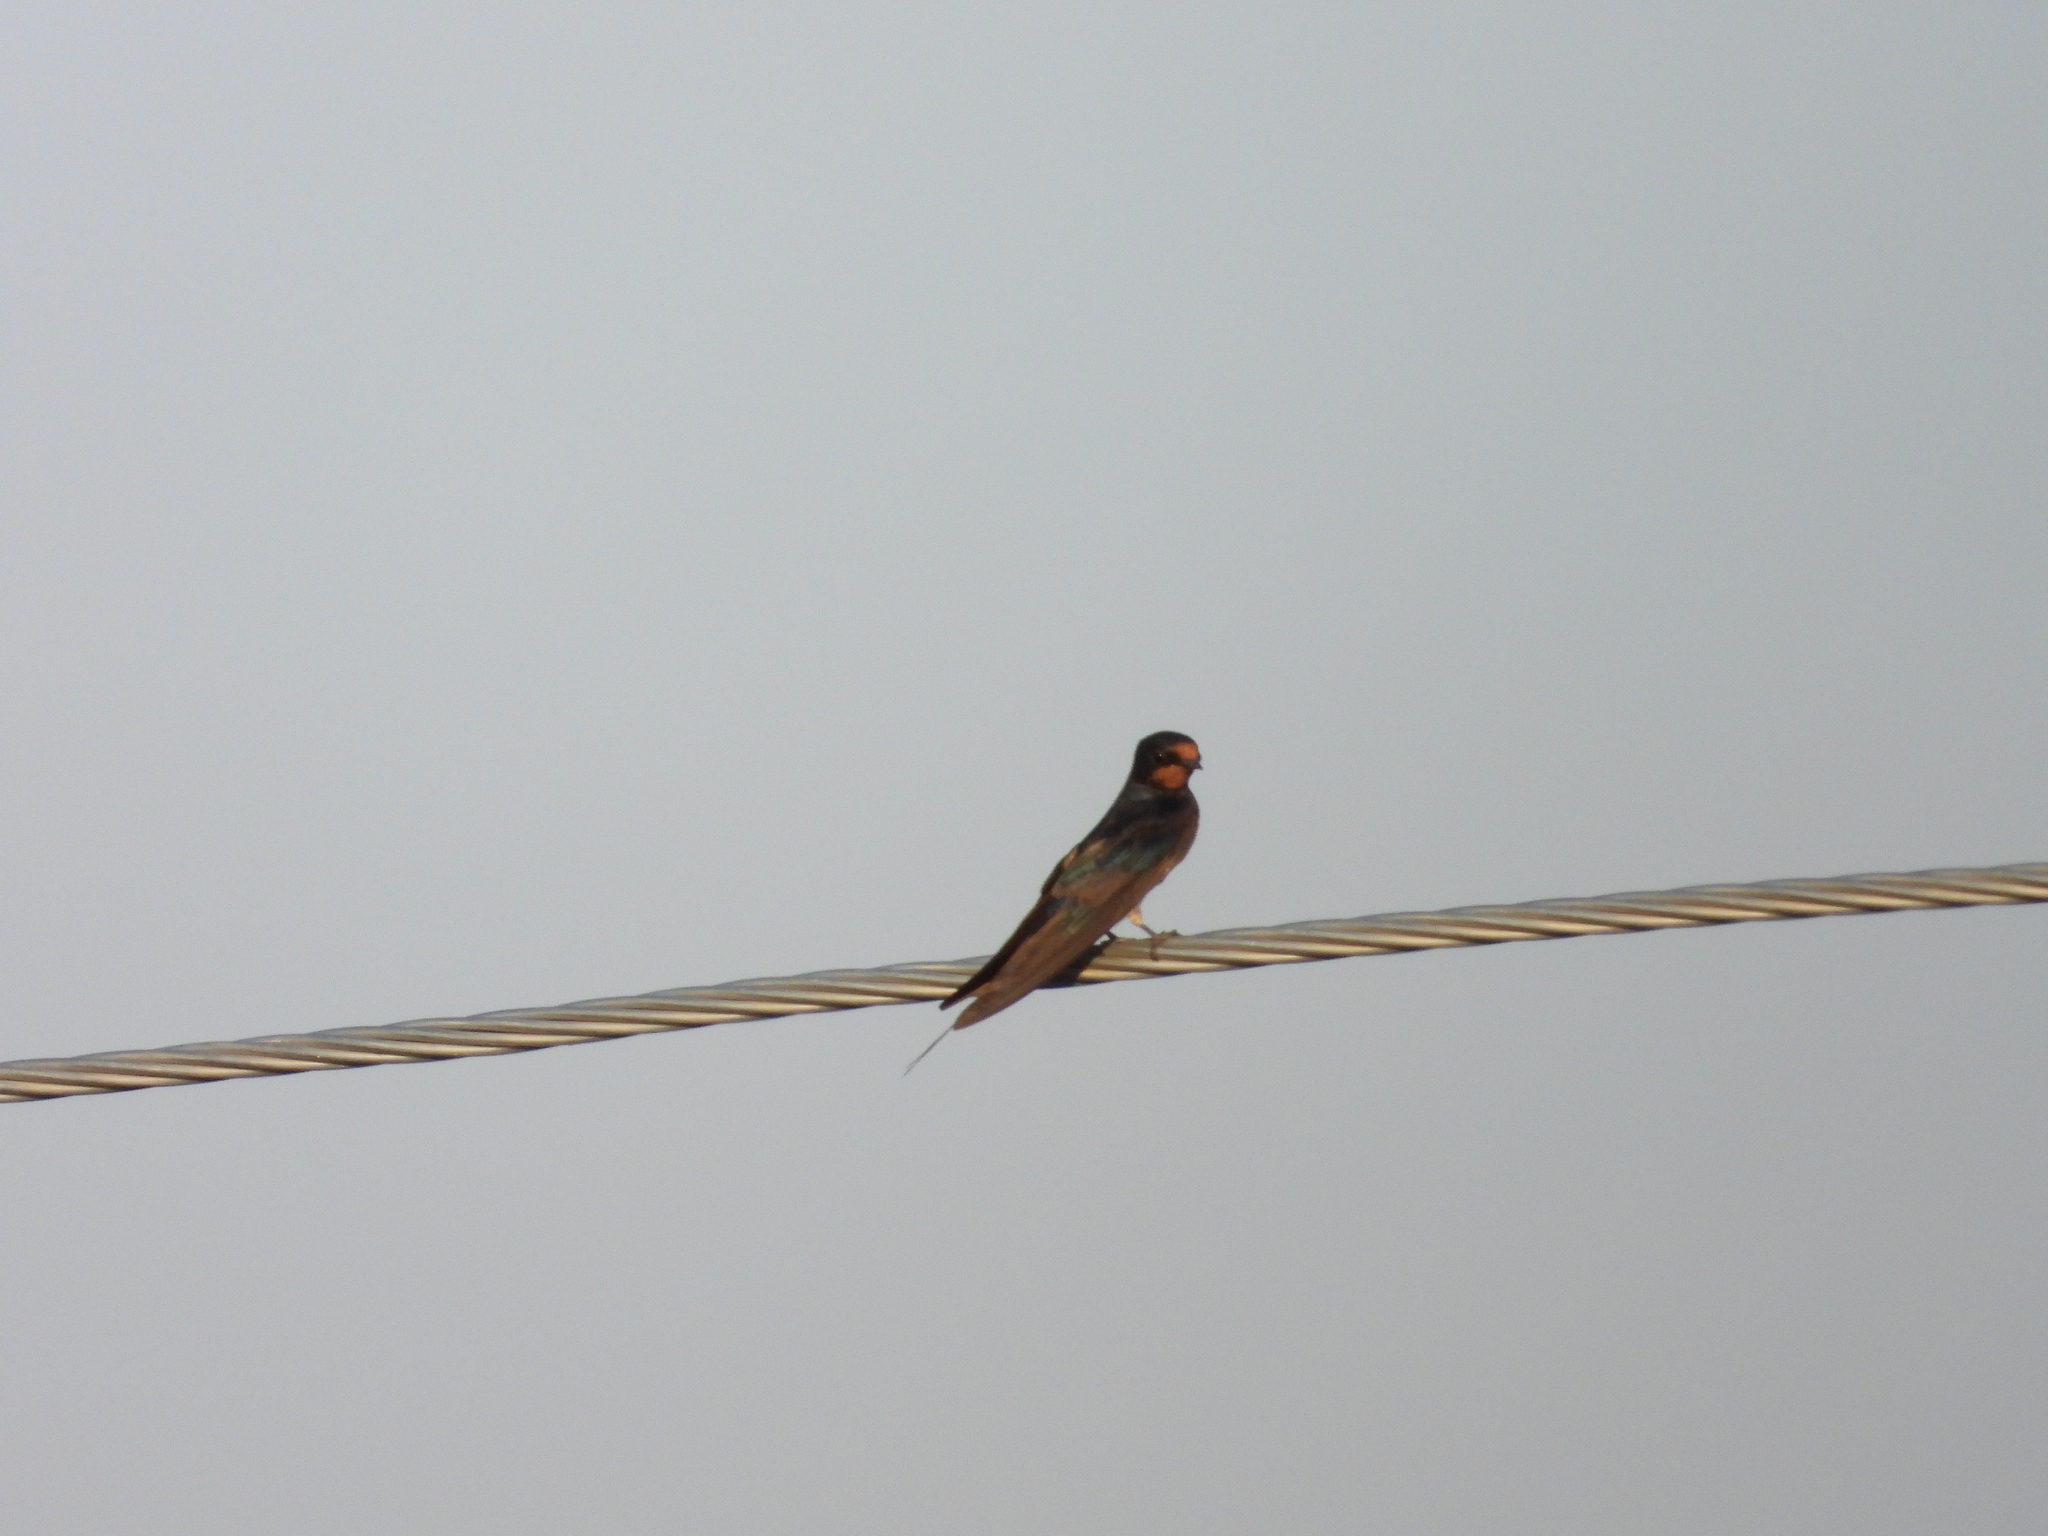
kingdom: Animalia
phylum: Chordata
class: Aves
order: Passeriformes
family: Hirundinidae
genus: Hirundo
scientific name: Hirundo rustica
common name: Barn swallow
